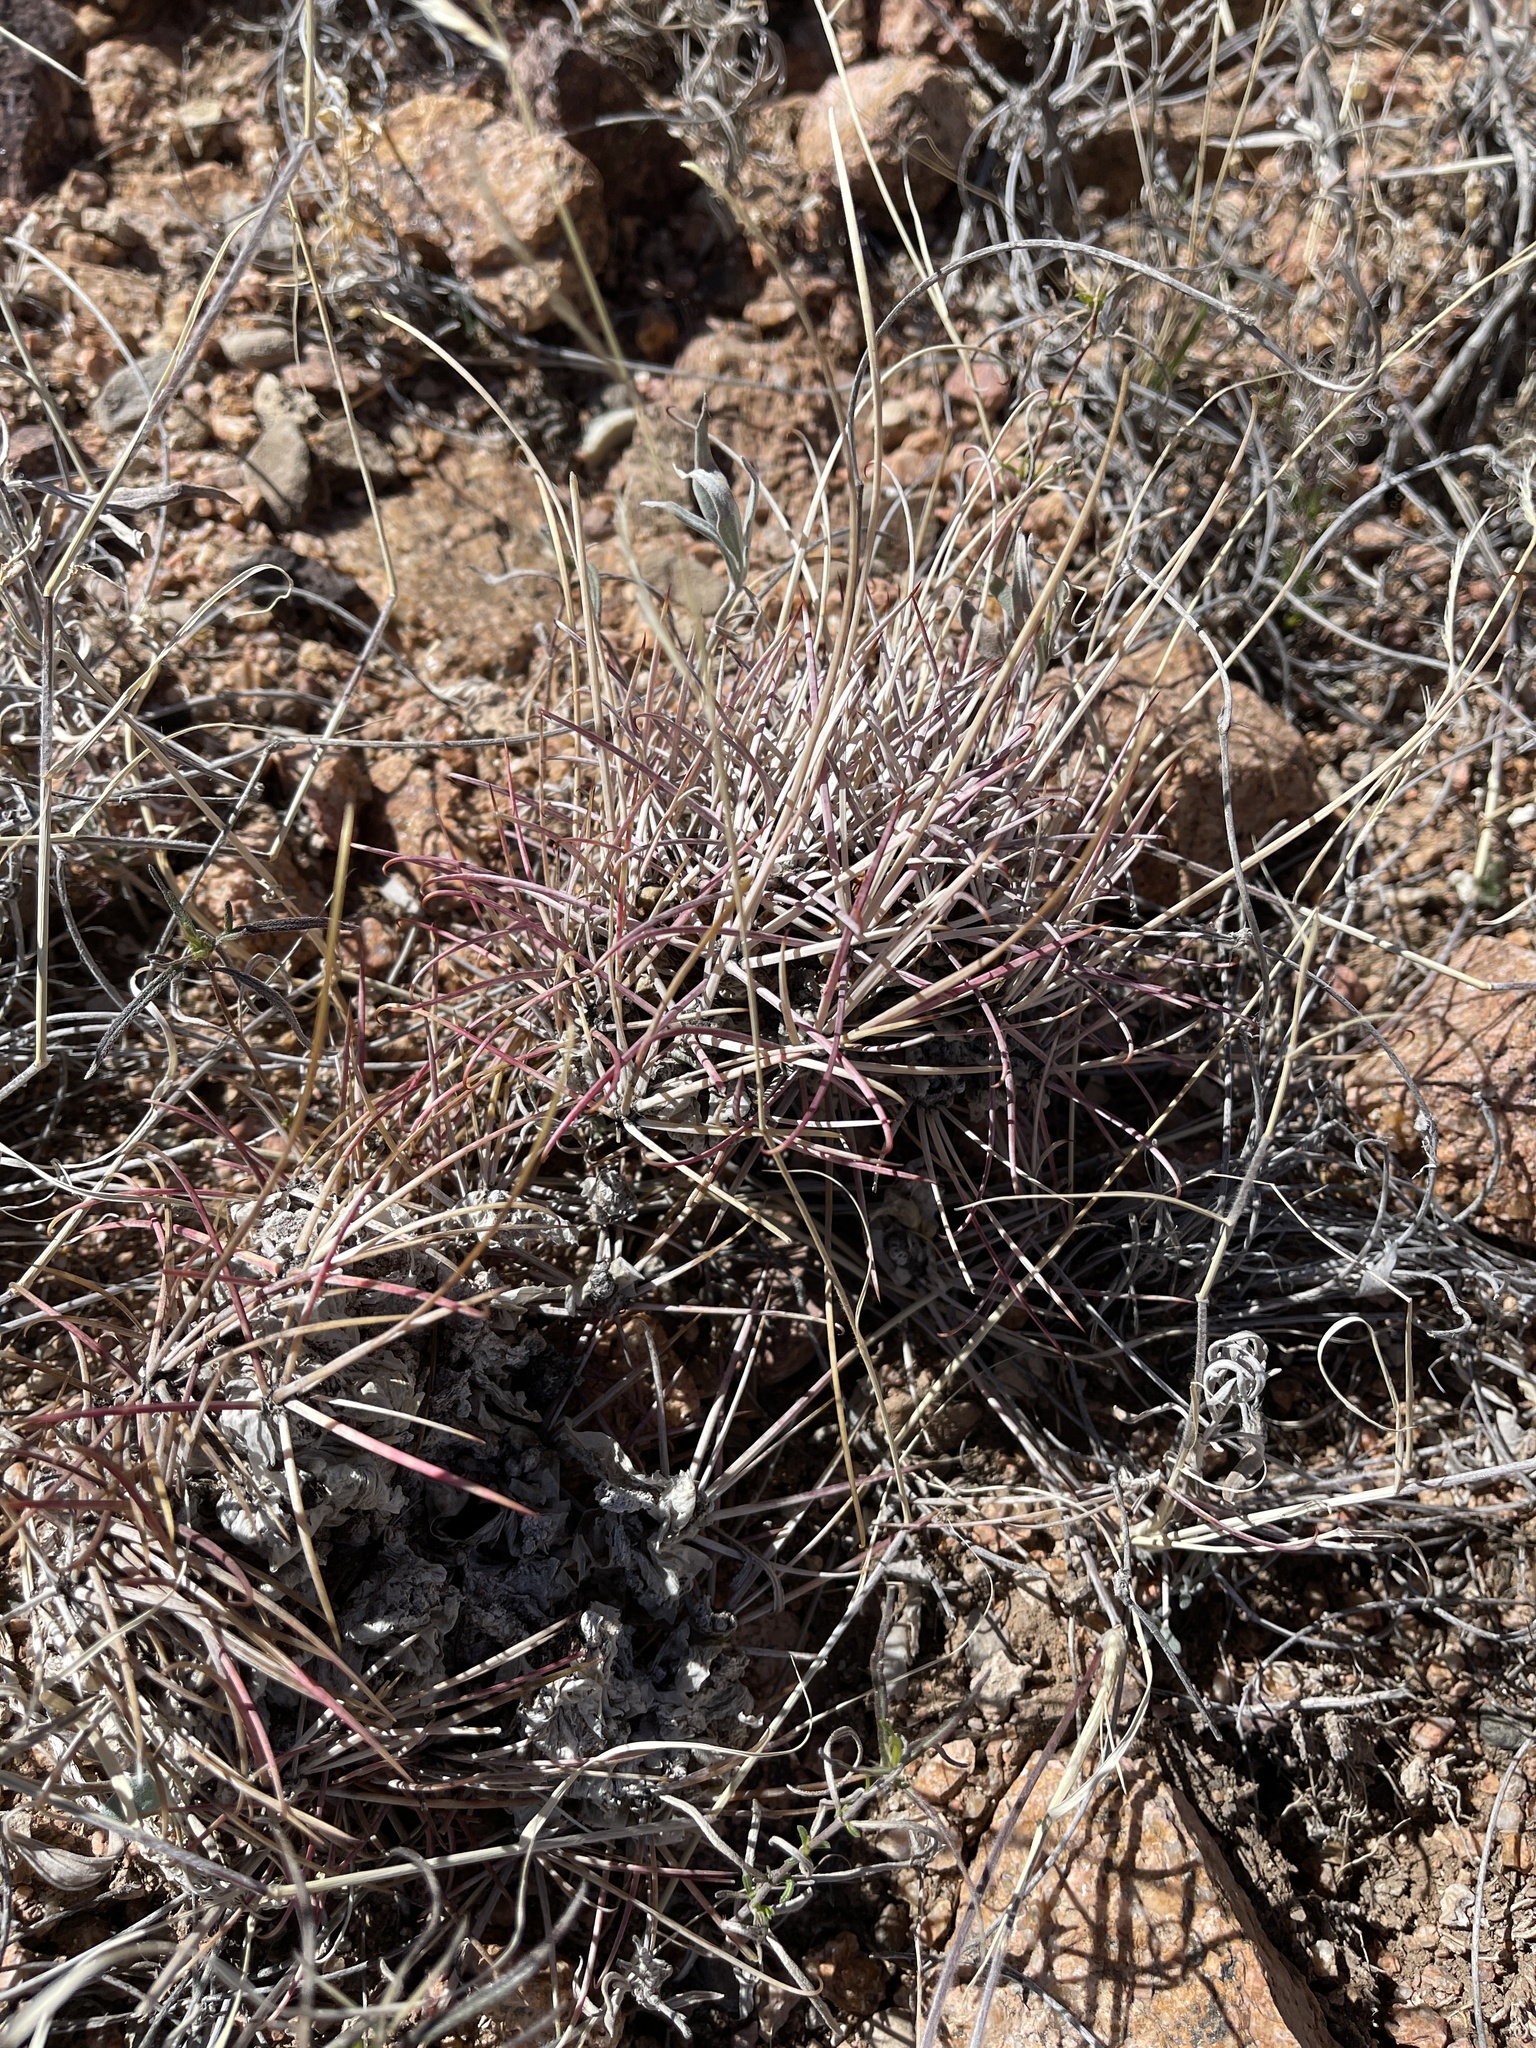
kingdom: Plantae
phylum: Tracheophyta
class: Magnoliopsida
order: Caryophyllales
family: Cactaceae
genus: Ferocactus
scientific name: Ferocactus uncinatus
